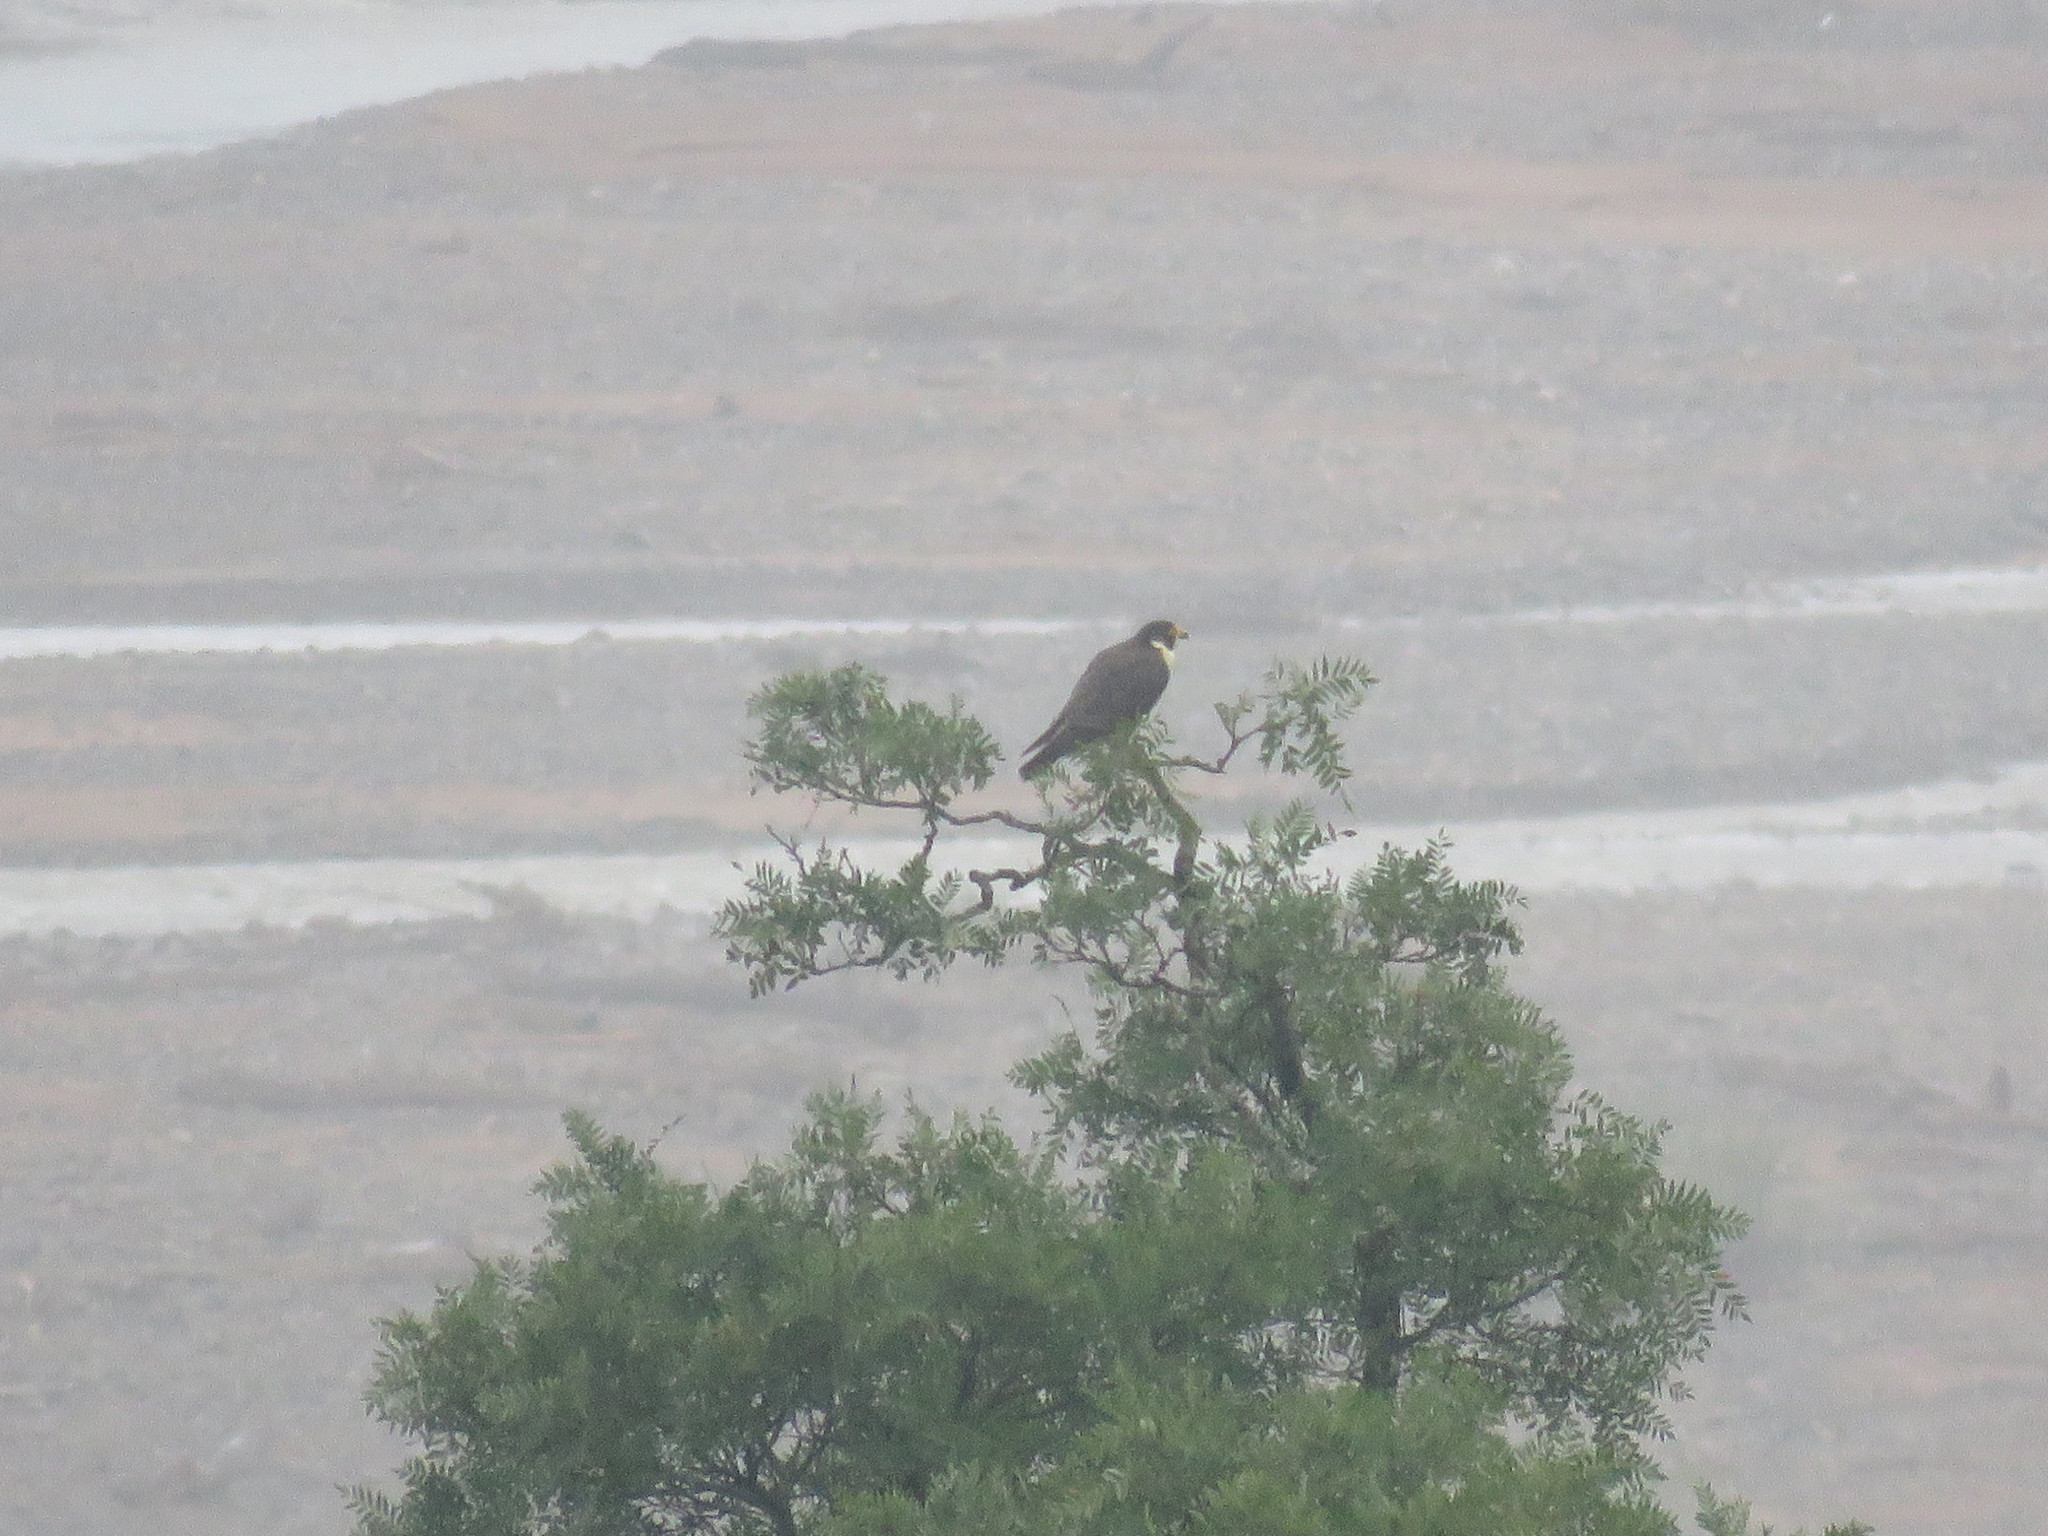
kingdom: Animalia
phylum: Chordata
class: Aves
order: Falconiformes
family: Falconidae
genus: Falco
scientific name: Falco peregrinus
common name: Peregrine falcon
